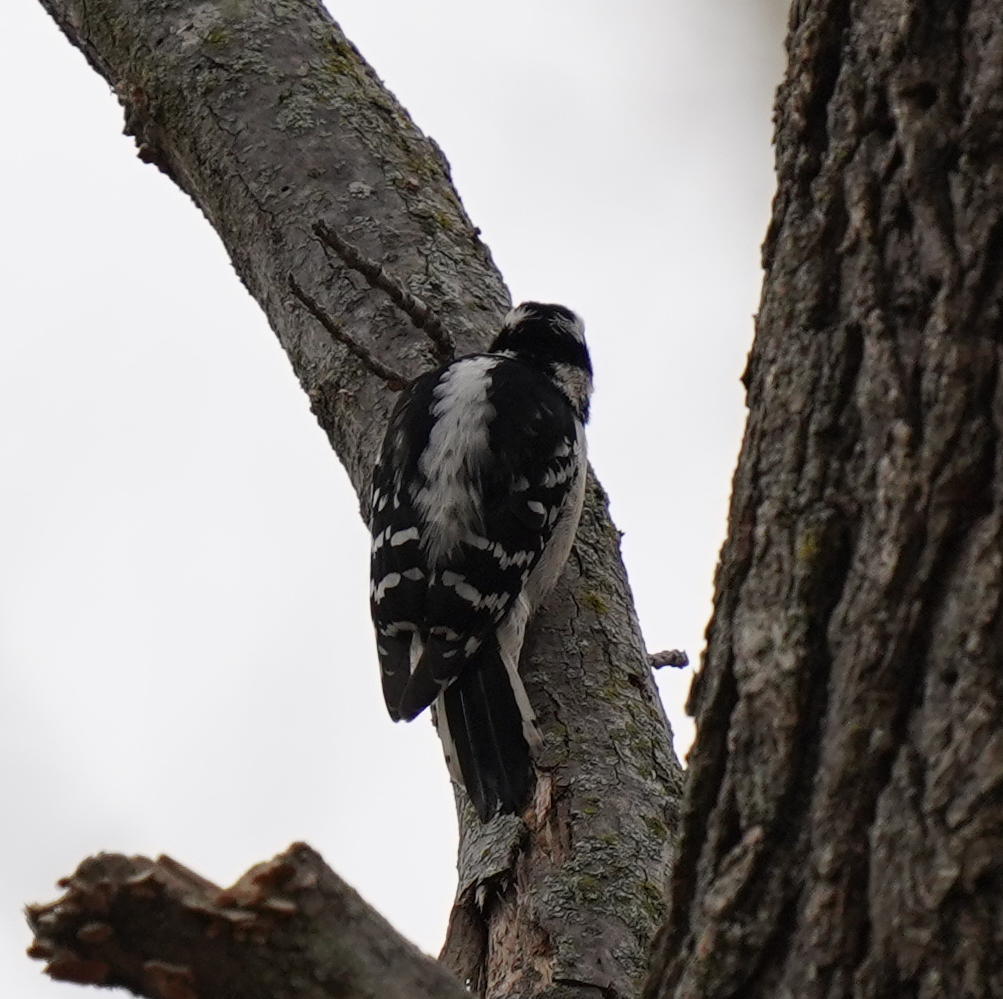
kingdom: Animalia
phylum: Chordata
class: Aves
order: Piciformes
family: Picidae
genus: Dryobates
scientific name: Dryobates pubescens
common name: Downy woodpecker
